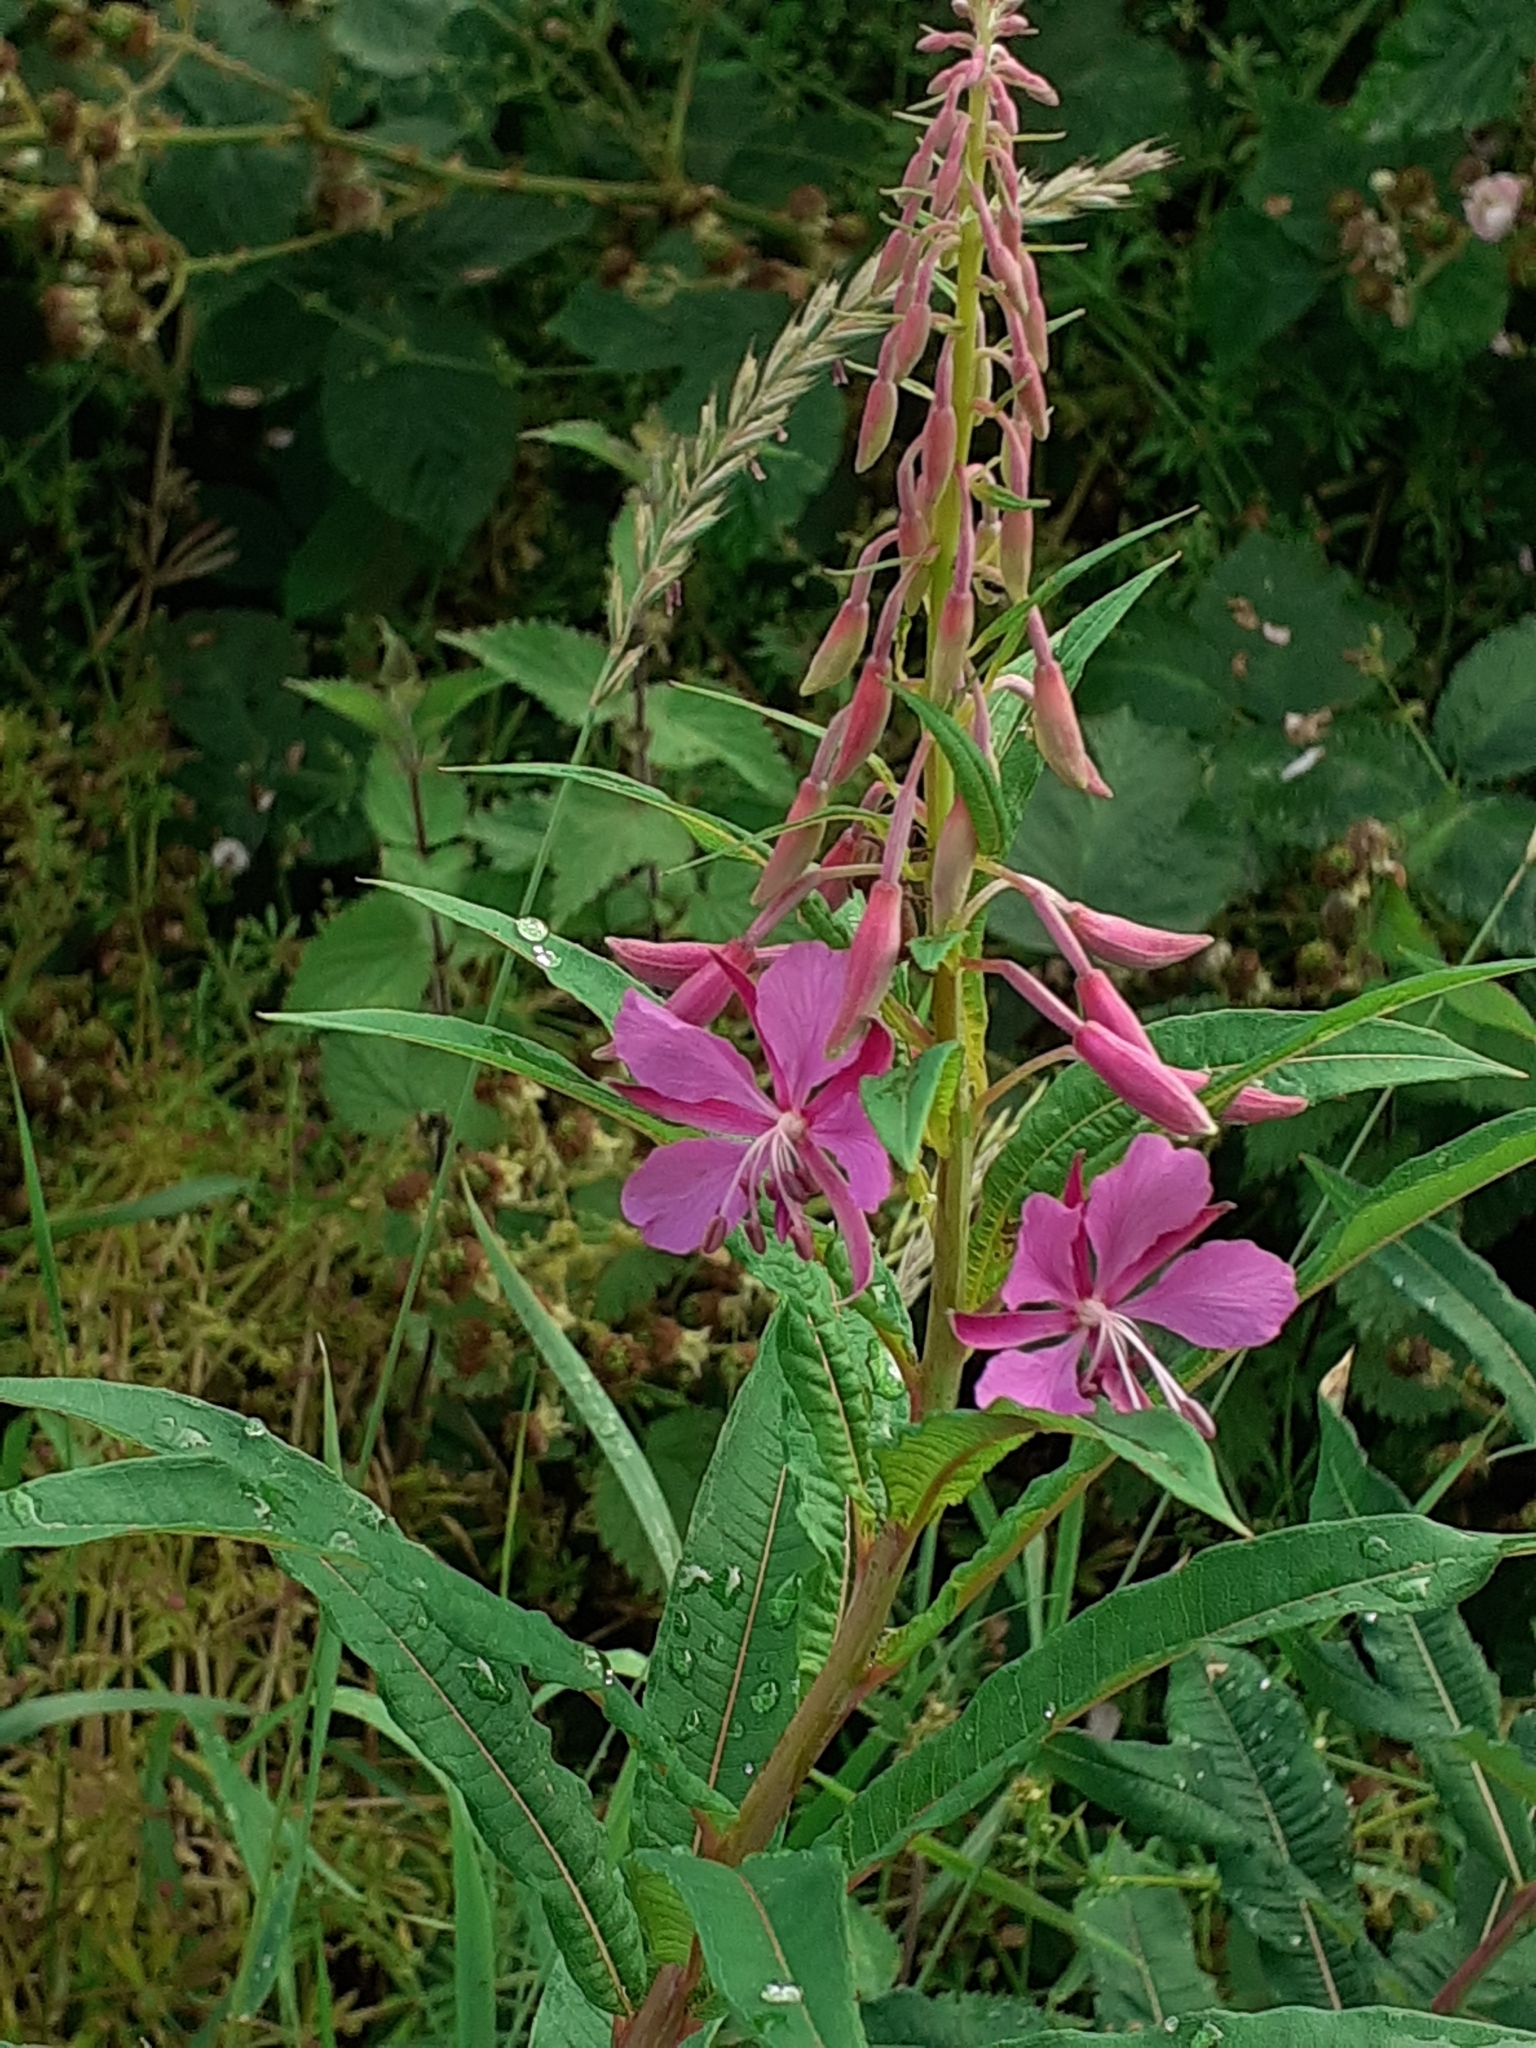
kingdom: Plantae
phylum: Tracheophyta
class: Magnoliopsida
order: Myrtales
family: Onagraceae
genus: Chamaenerion
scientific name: Chamaenerion angustifolium
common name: Fireweed
